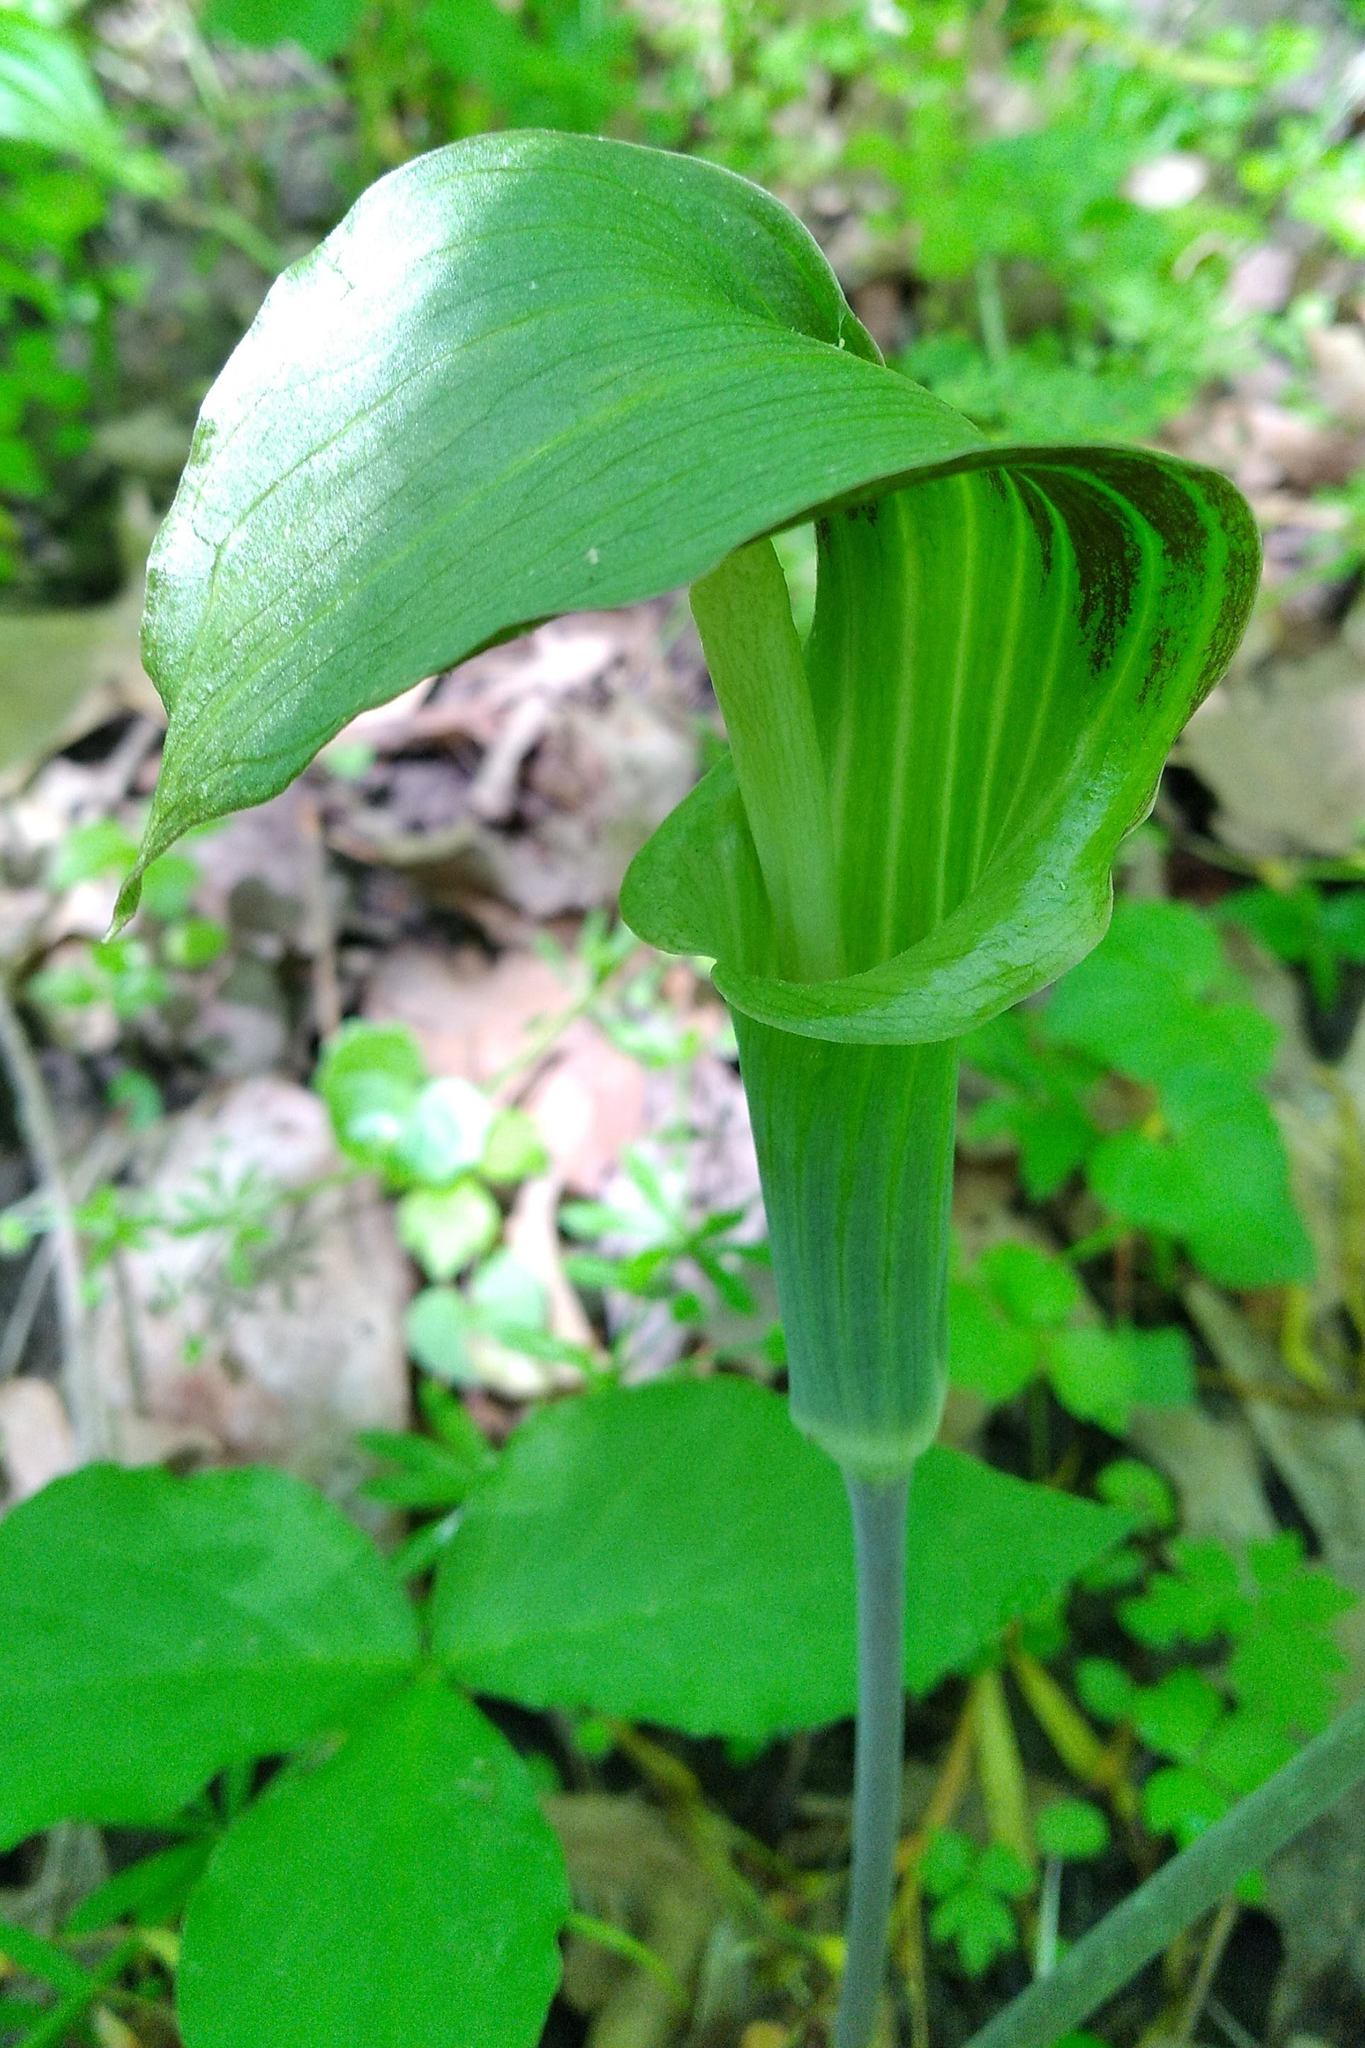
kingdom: Plantae
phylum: Tracheophyta
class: Liliopsida
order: Alismatales
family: Araceae
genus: Arisaema
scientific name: Arisaema triphyllum
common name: Jack-in-the-pulpit
